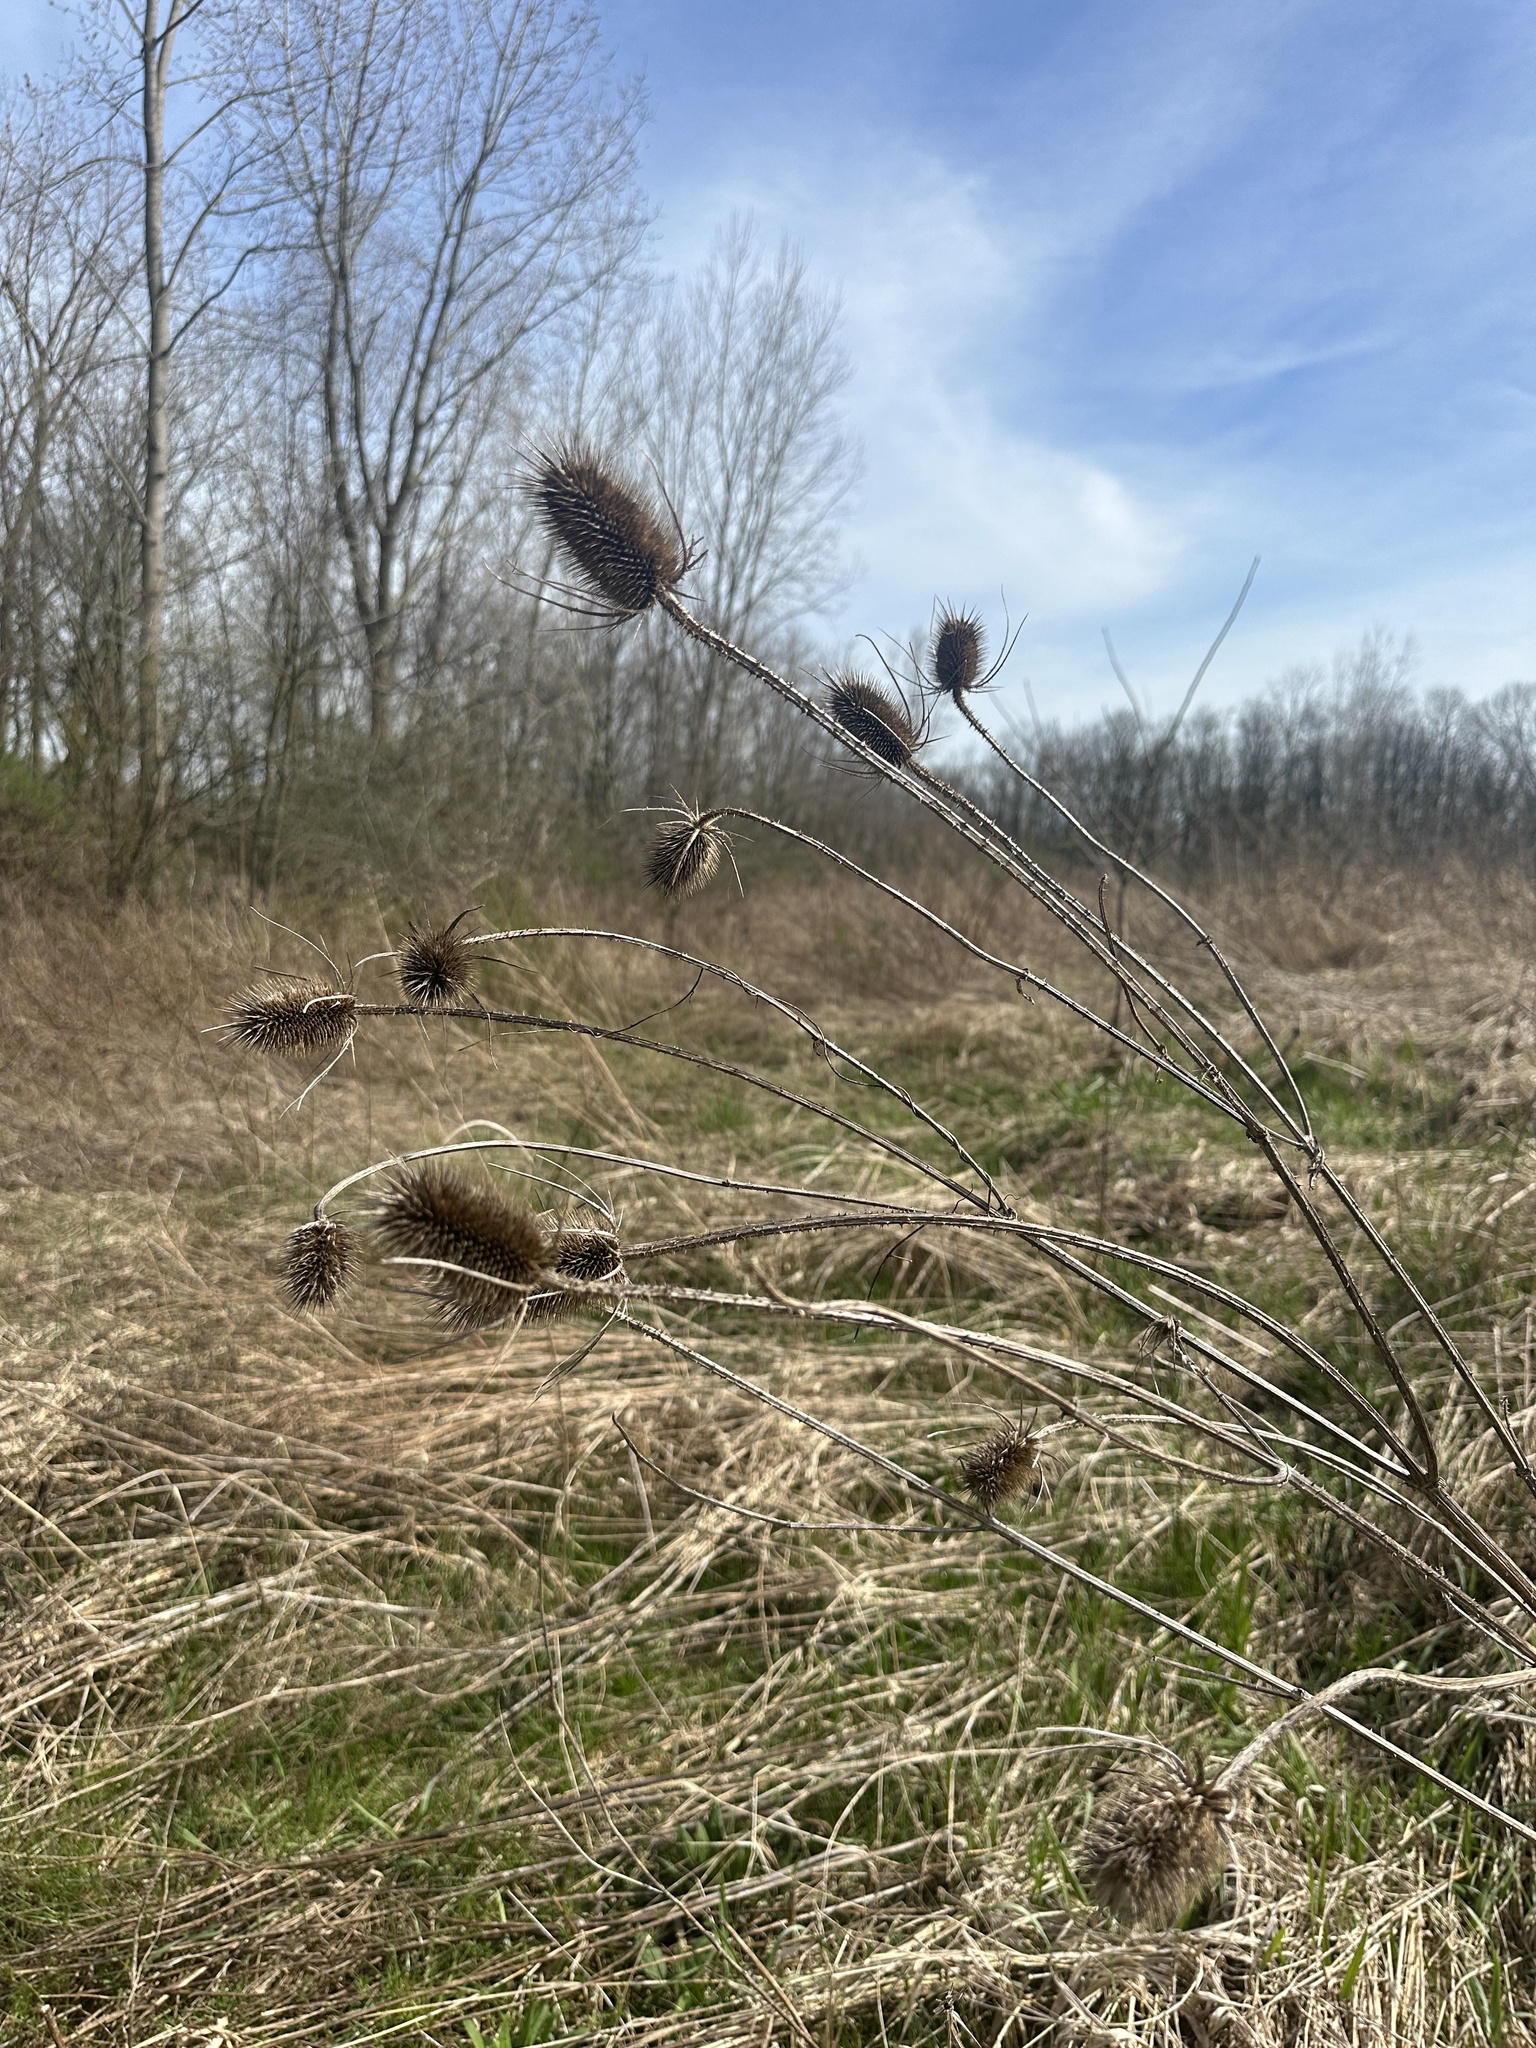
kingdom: Plantae
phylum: Tracheophyta
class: Magnoliopsida
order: Dipsacales
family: Caprifoliaceae
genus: Dipsacus
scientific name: Dipsacus fullonum
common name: Teasel
